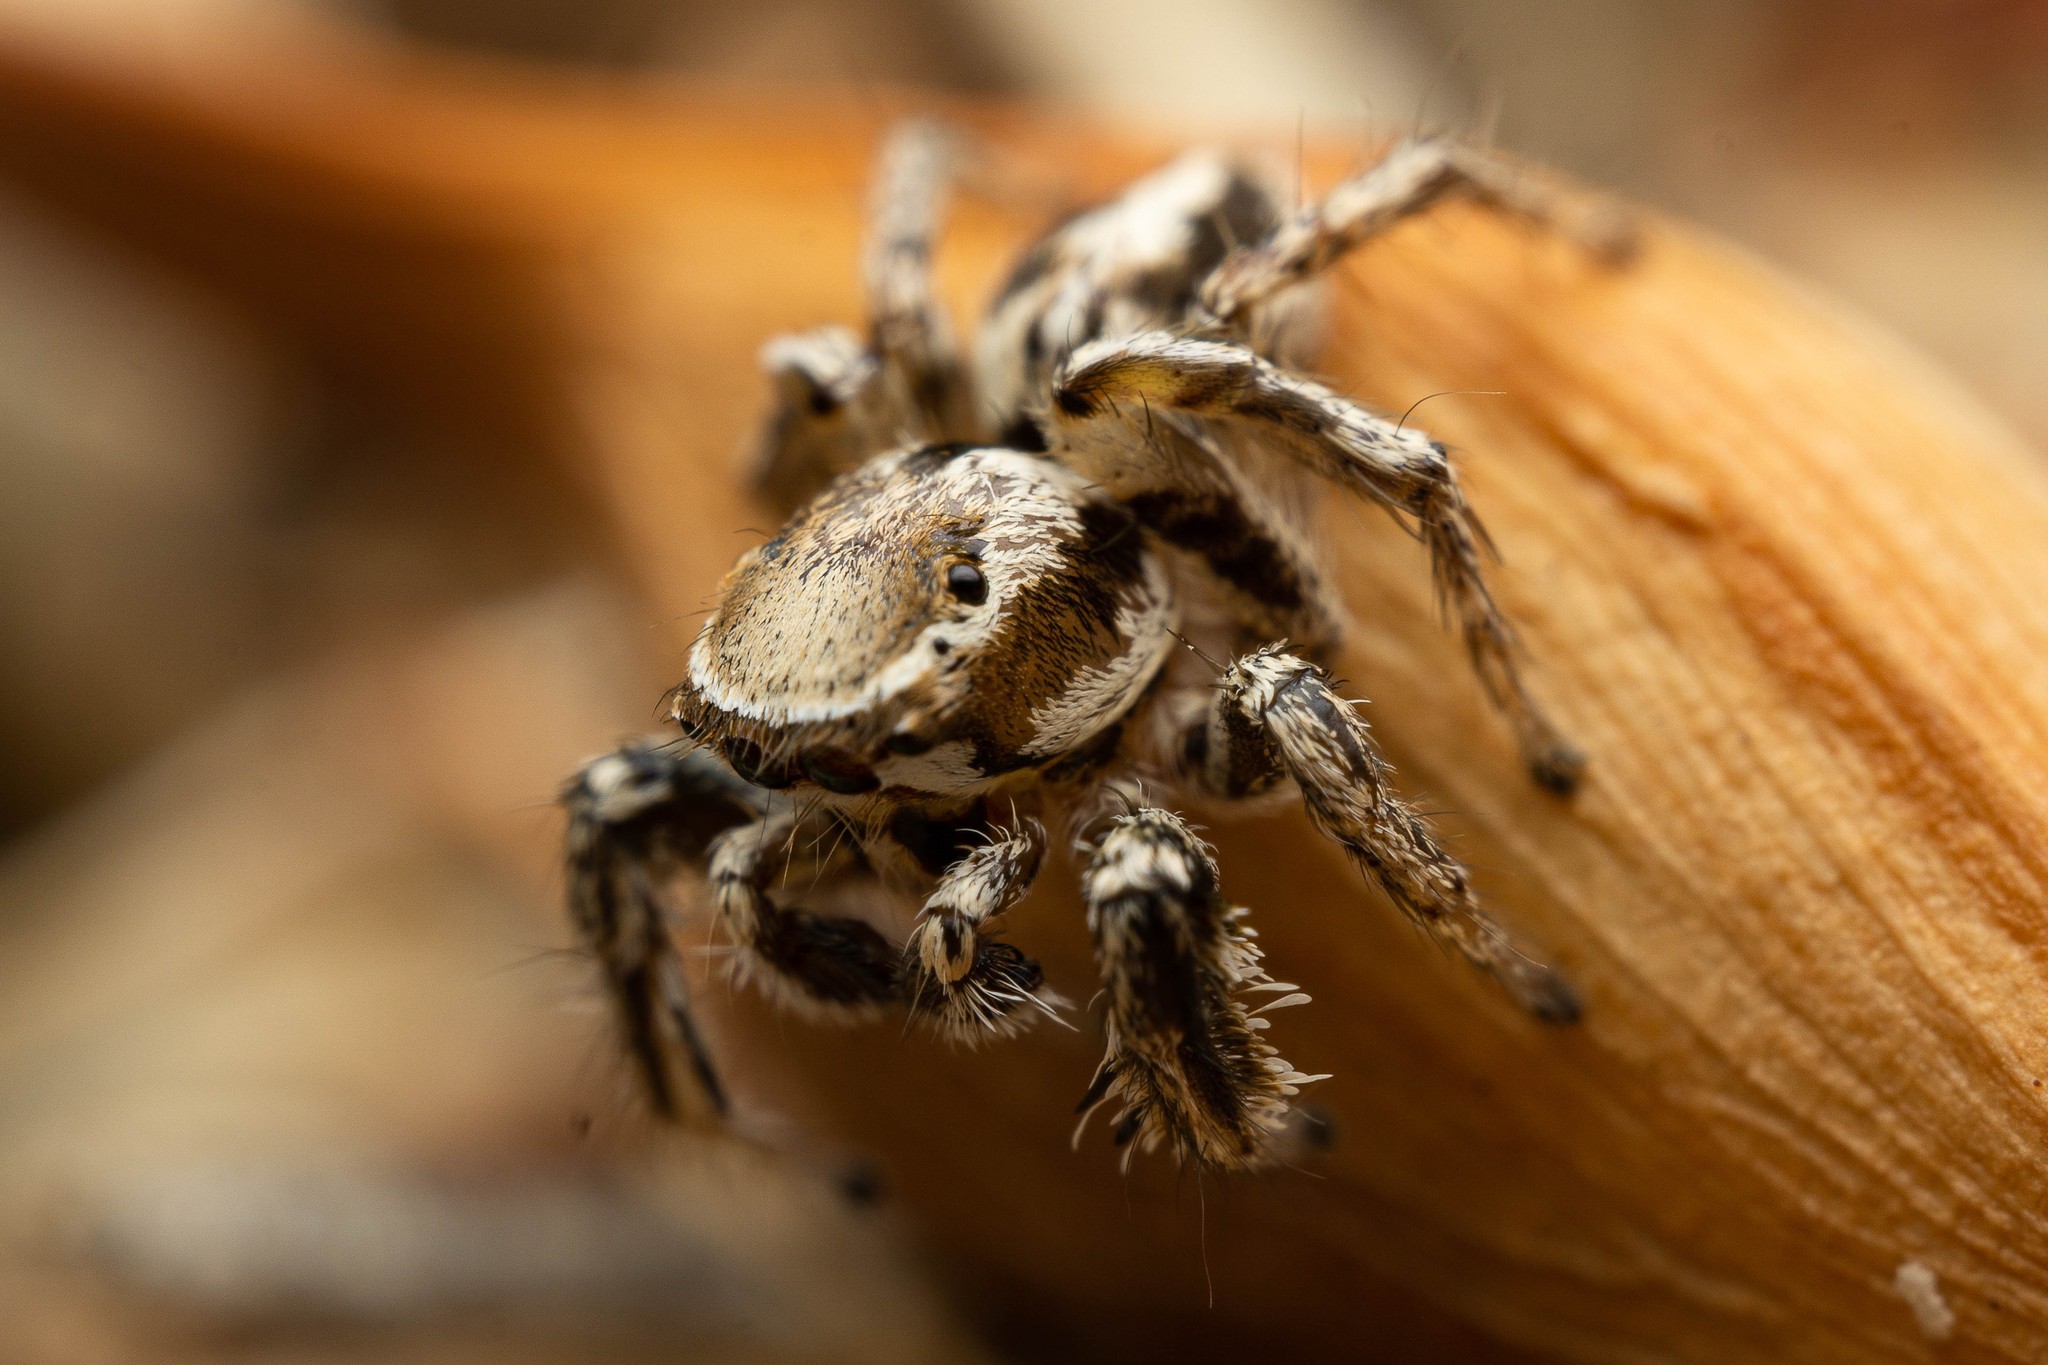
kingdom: Animalia
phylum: Arthropoda
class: Arachnida
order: Araneae
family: Salticidae
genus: Habronattus
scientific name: Habronattus clypeatus
